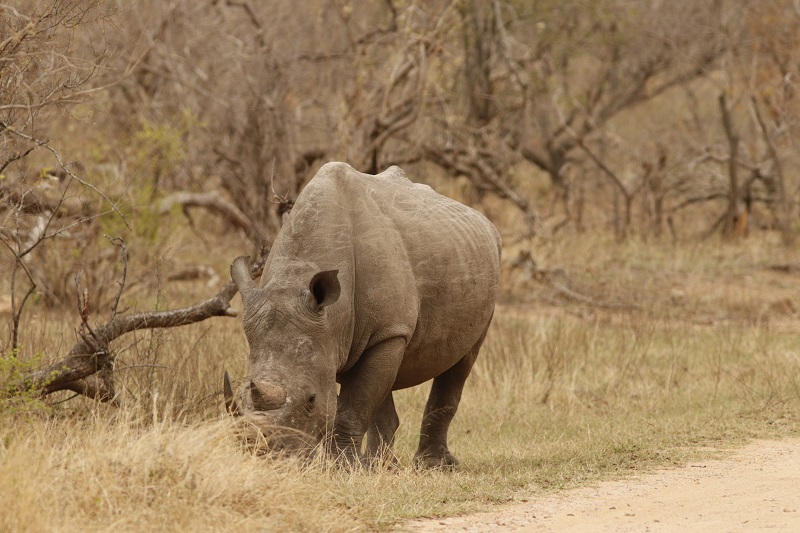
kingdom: Animalia
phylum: Chordata
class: Mammalia
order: Perissodactyla
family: Rhinocerotidae
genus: Ceratotherium
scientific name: Ceratotherium simum
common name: White rhinoceros
